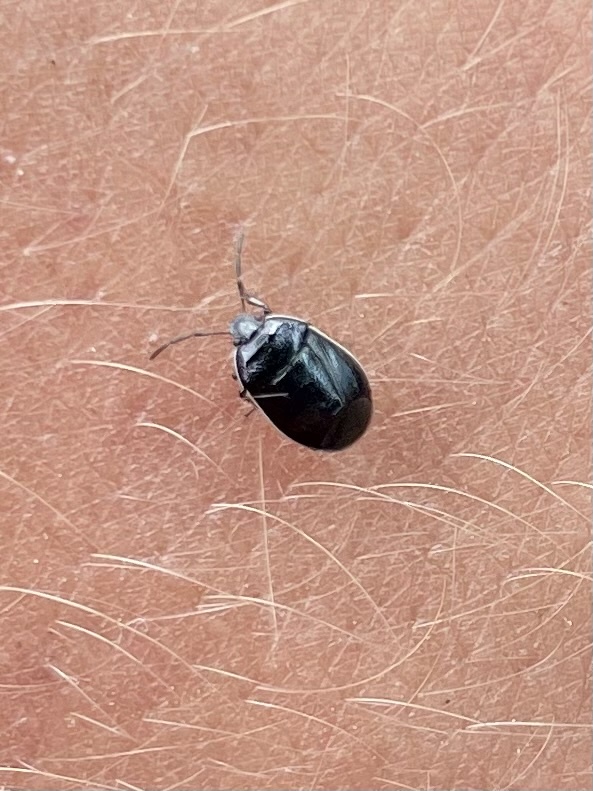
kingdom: Animalia
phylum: Arthropoda
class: Insecta
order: Hemiptera
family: Cydnidae
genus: Sehirus
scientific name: Sehirus cinctus
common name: White-margined burrower bug
